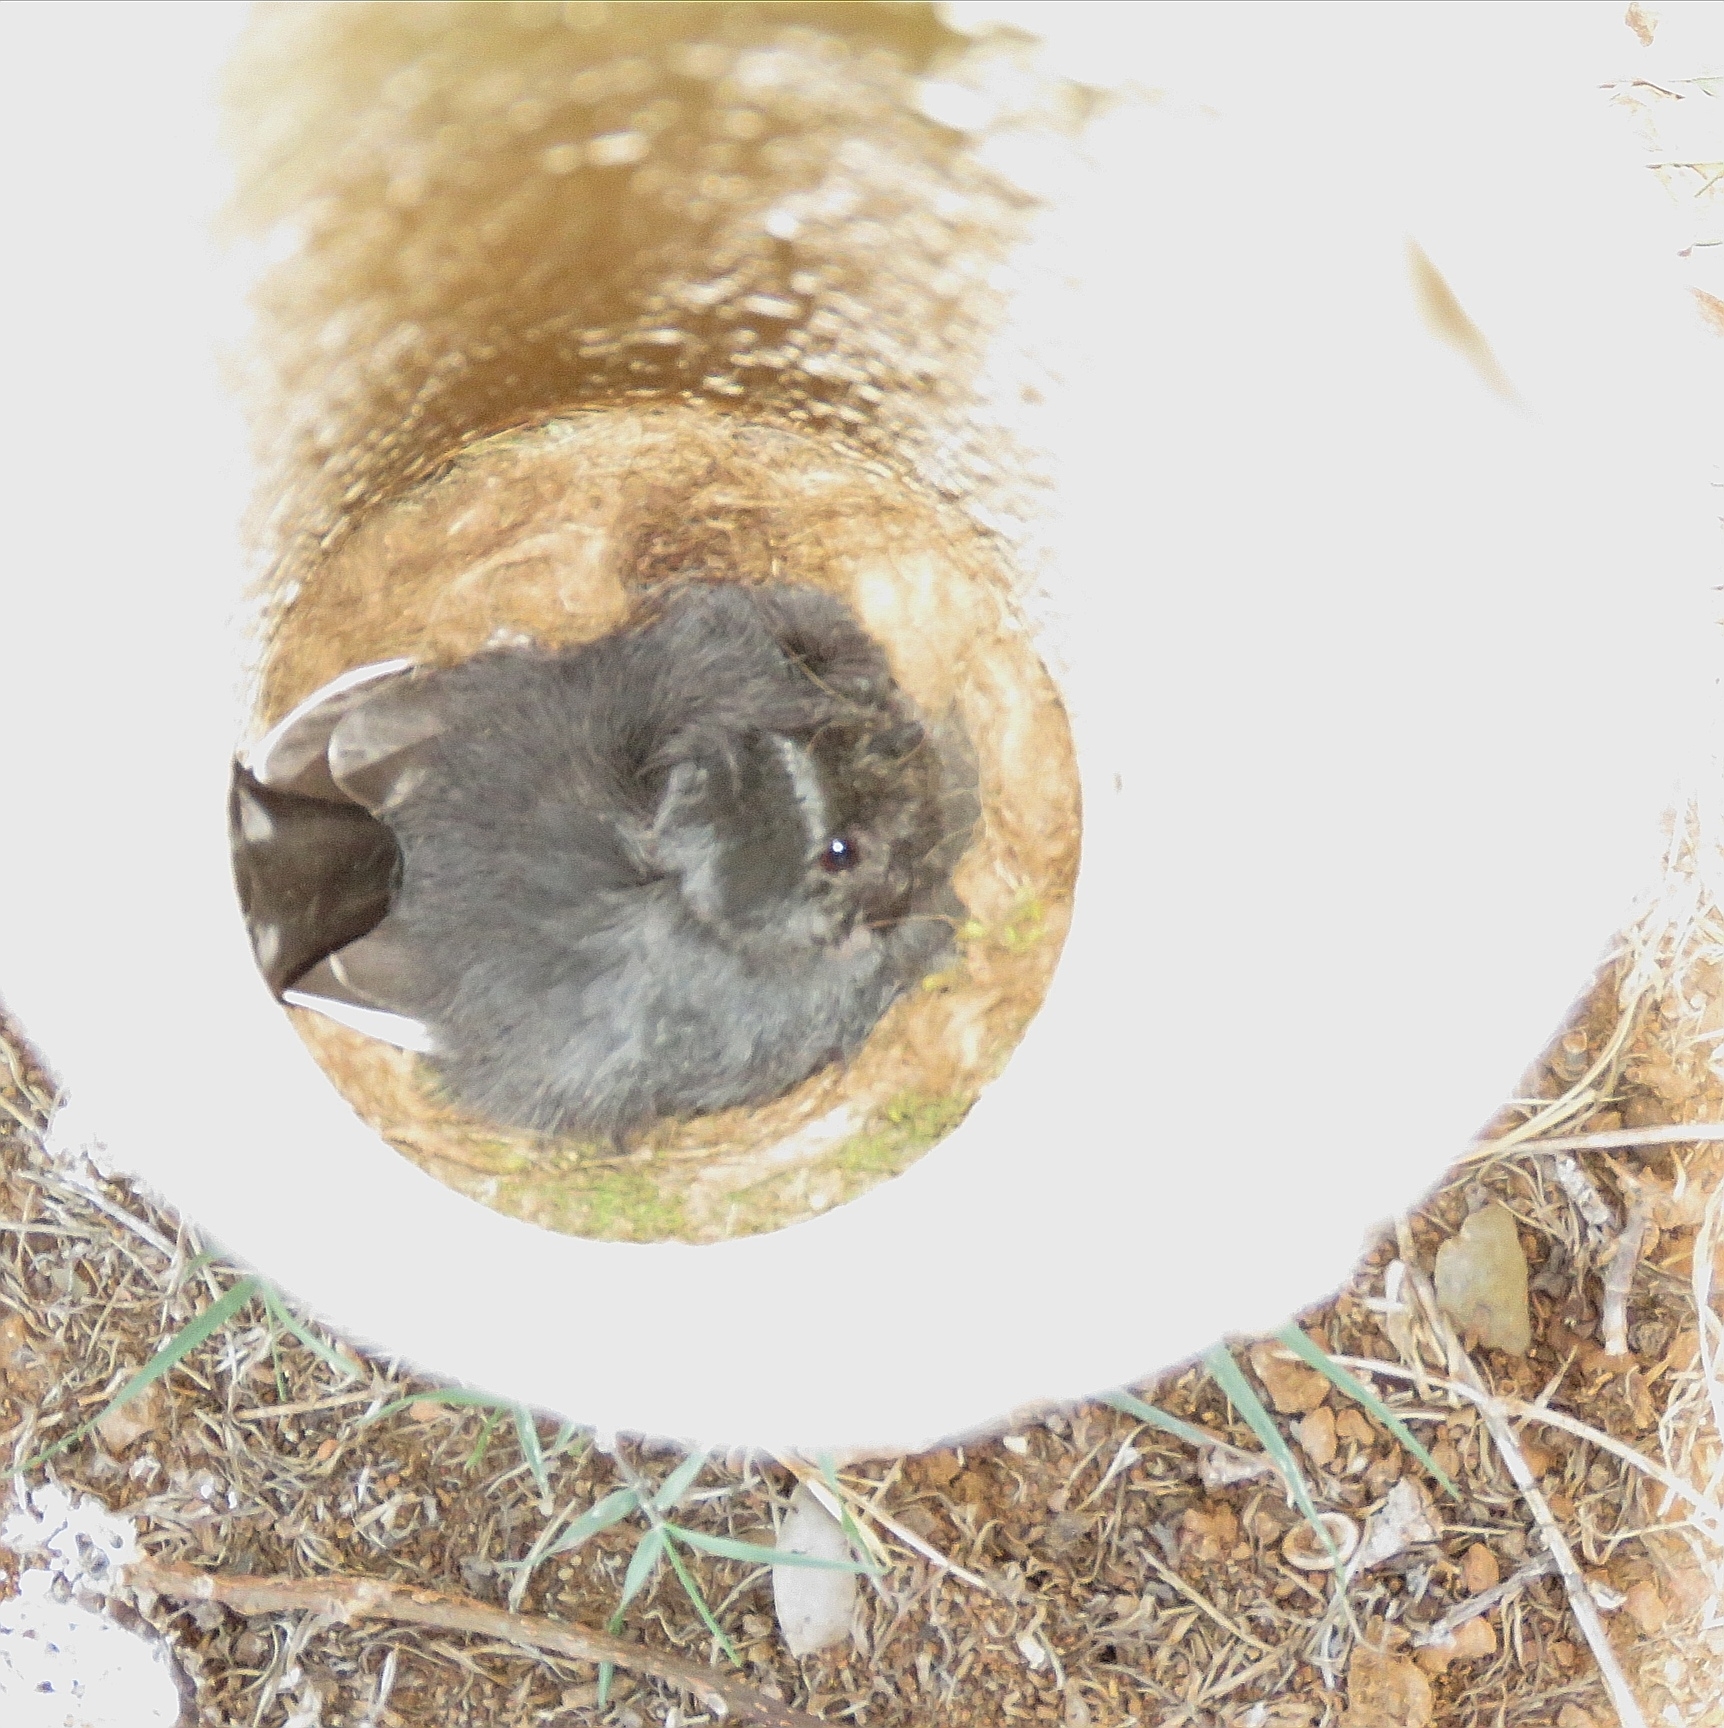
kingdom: Animalia
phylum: Chordata
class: Aves
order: Passeriformes
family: Paridae
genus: Parus
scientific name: Parus niger
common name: Southern black tit
